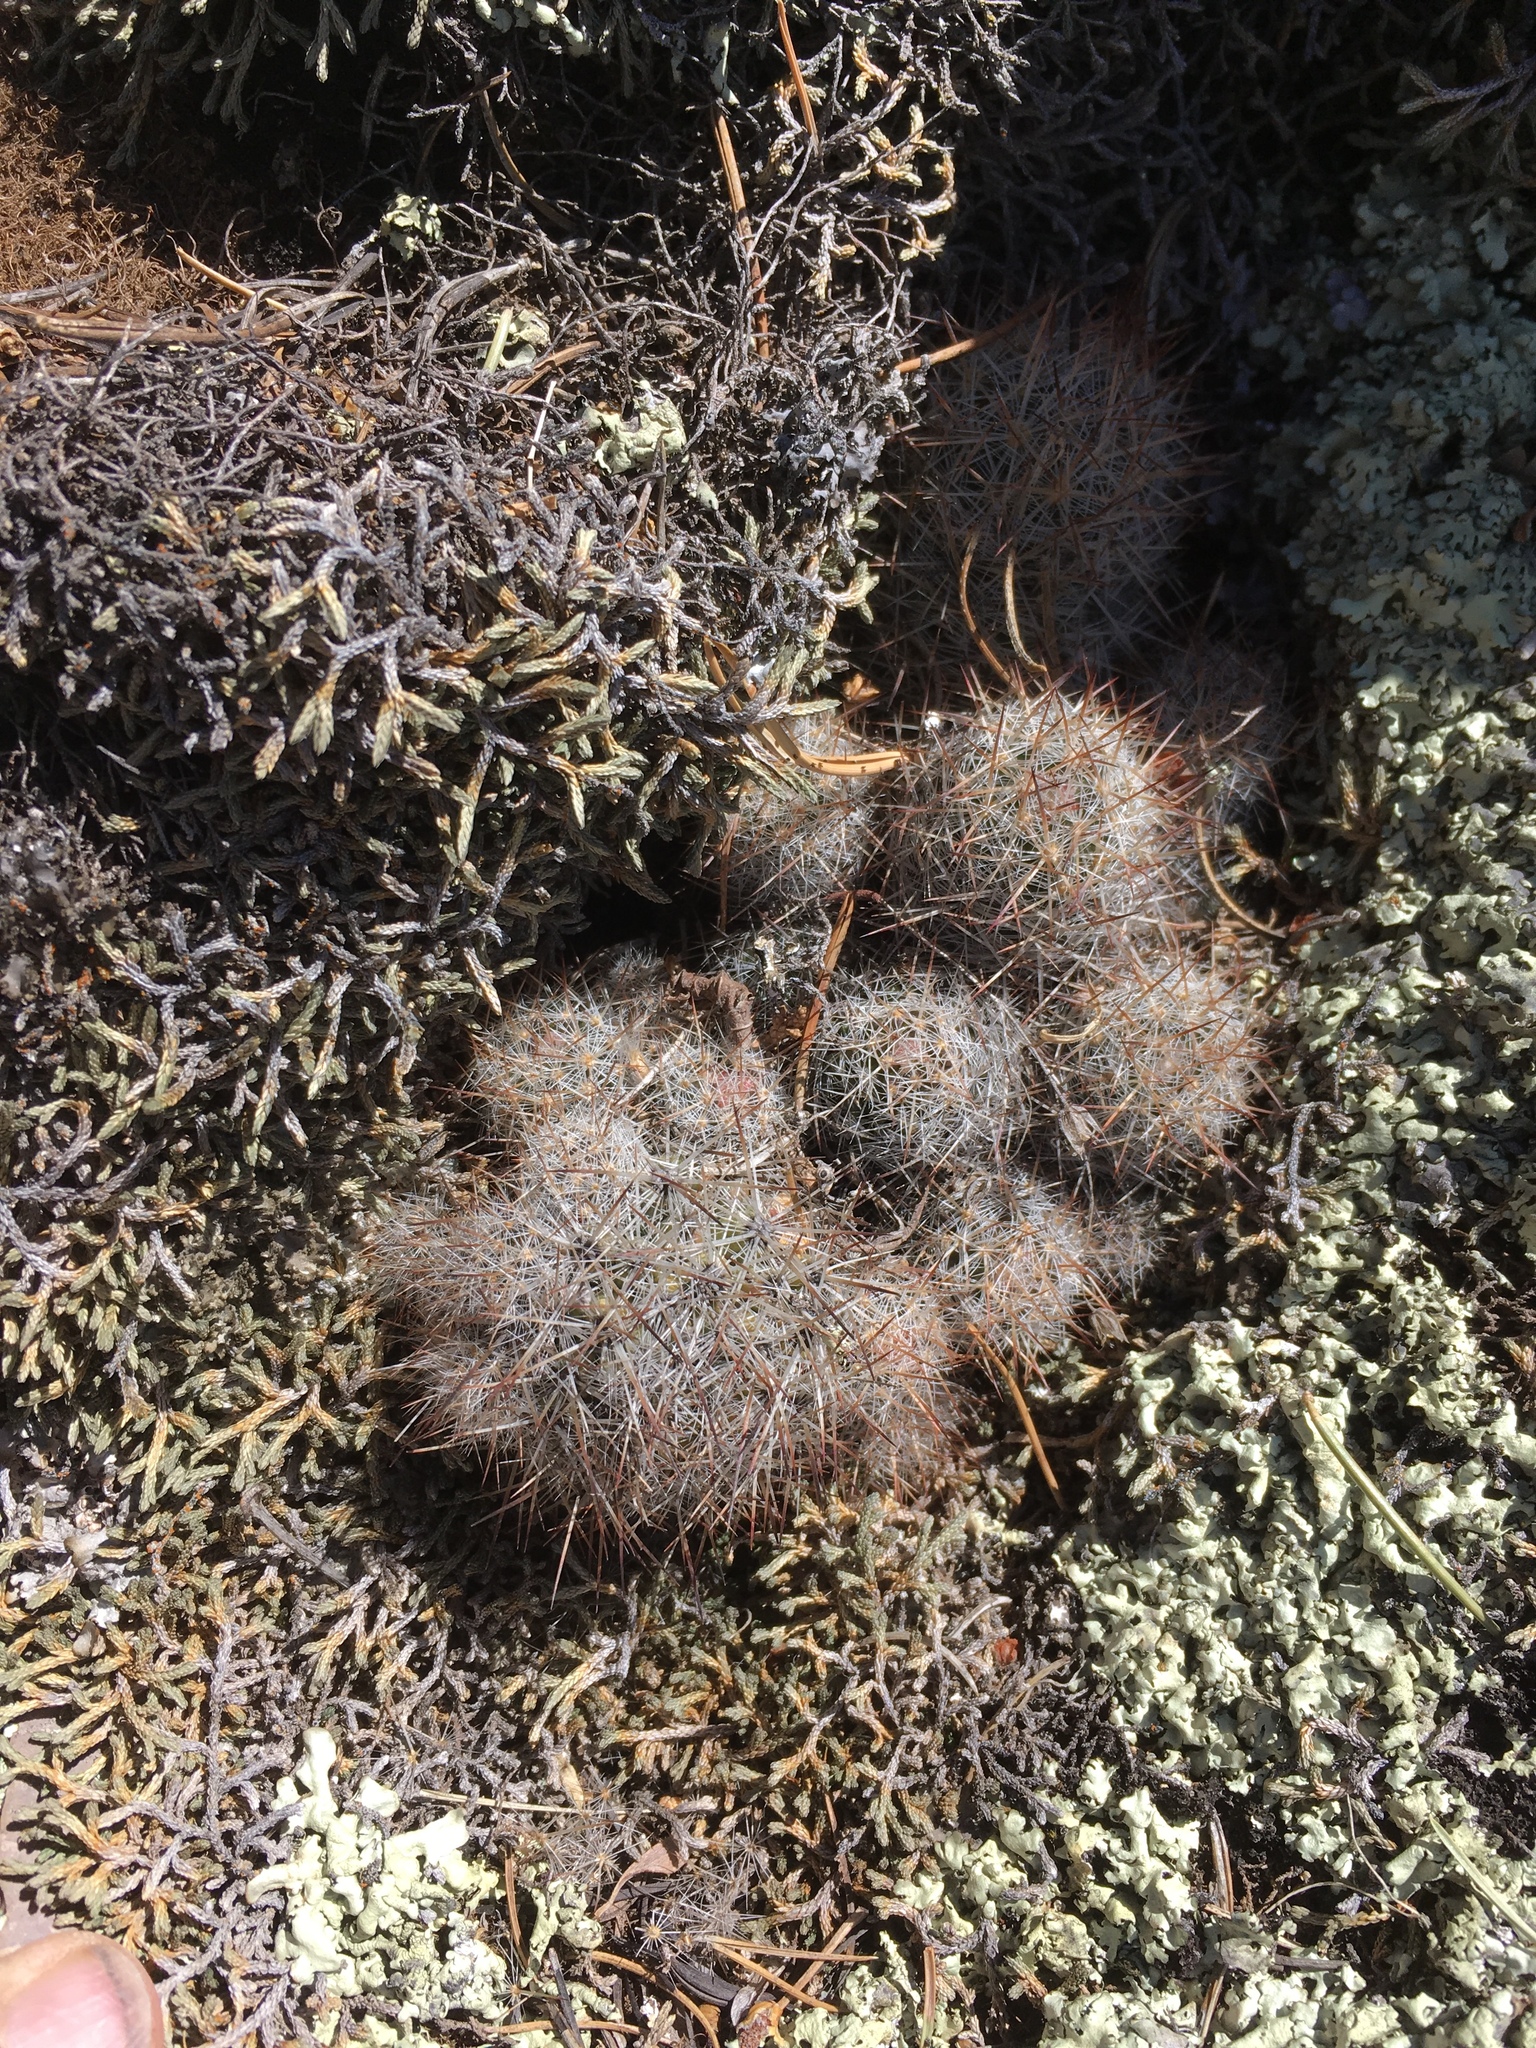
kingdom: Plantae
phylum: Tracheophyta
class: Magnoliopsida
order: Caryophyllales
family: Cactaceae
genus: Pelecyphora
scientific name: Pelecyphora sneedii
